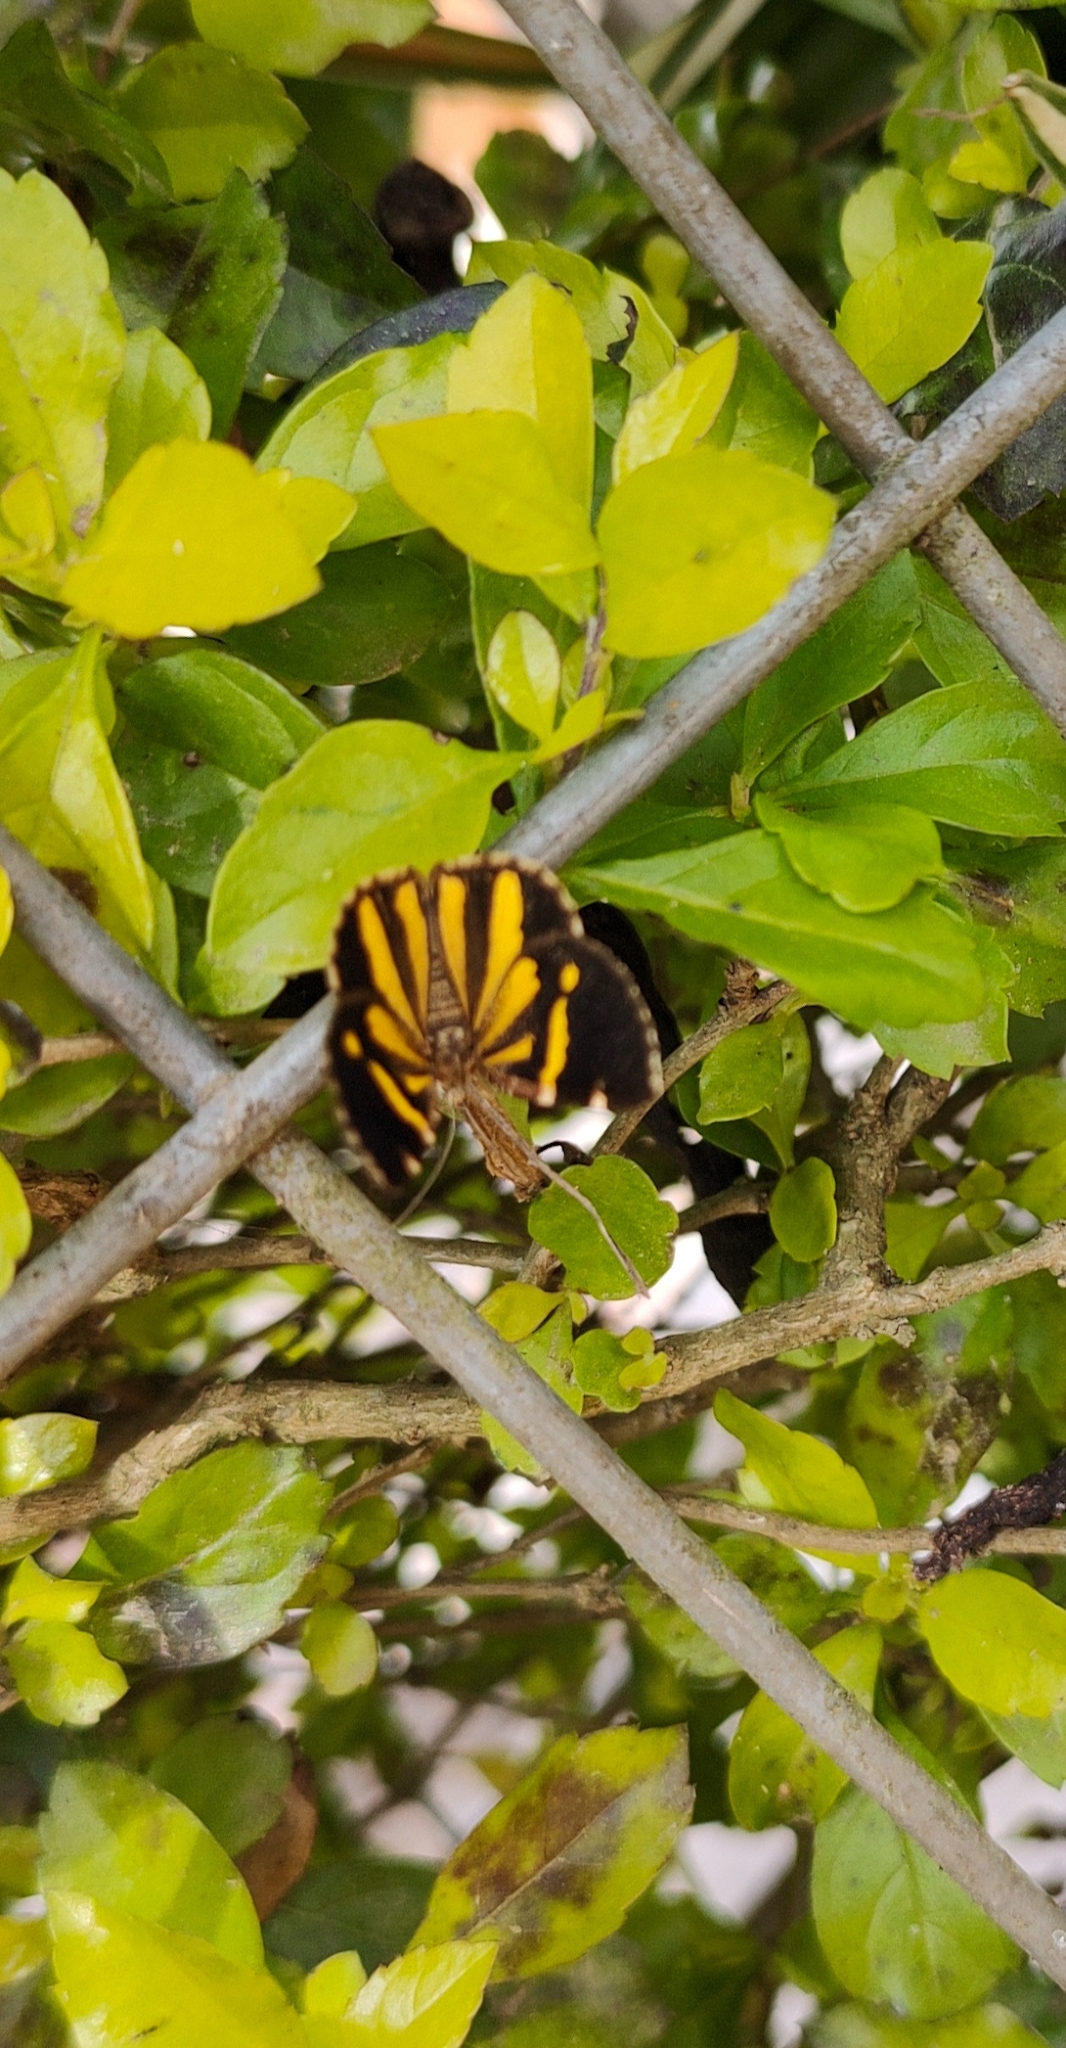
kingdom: Animalia
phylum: Arthropoda
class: Insecta
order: Lepidoptera
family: Geometridae
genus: Heterusia
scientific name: Heterusia quadruplicaria
